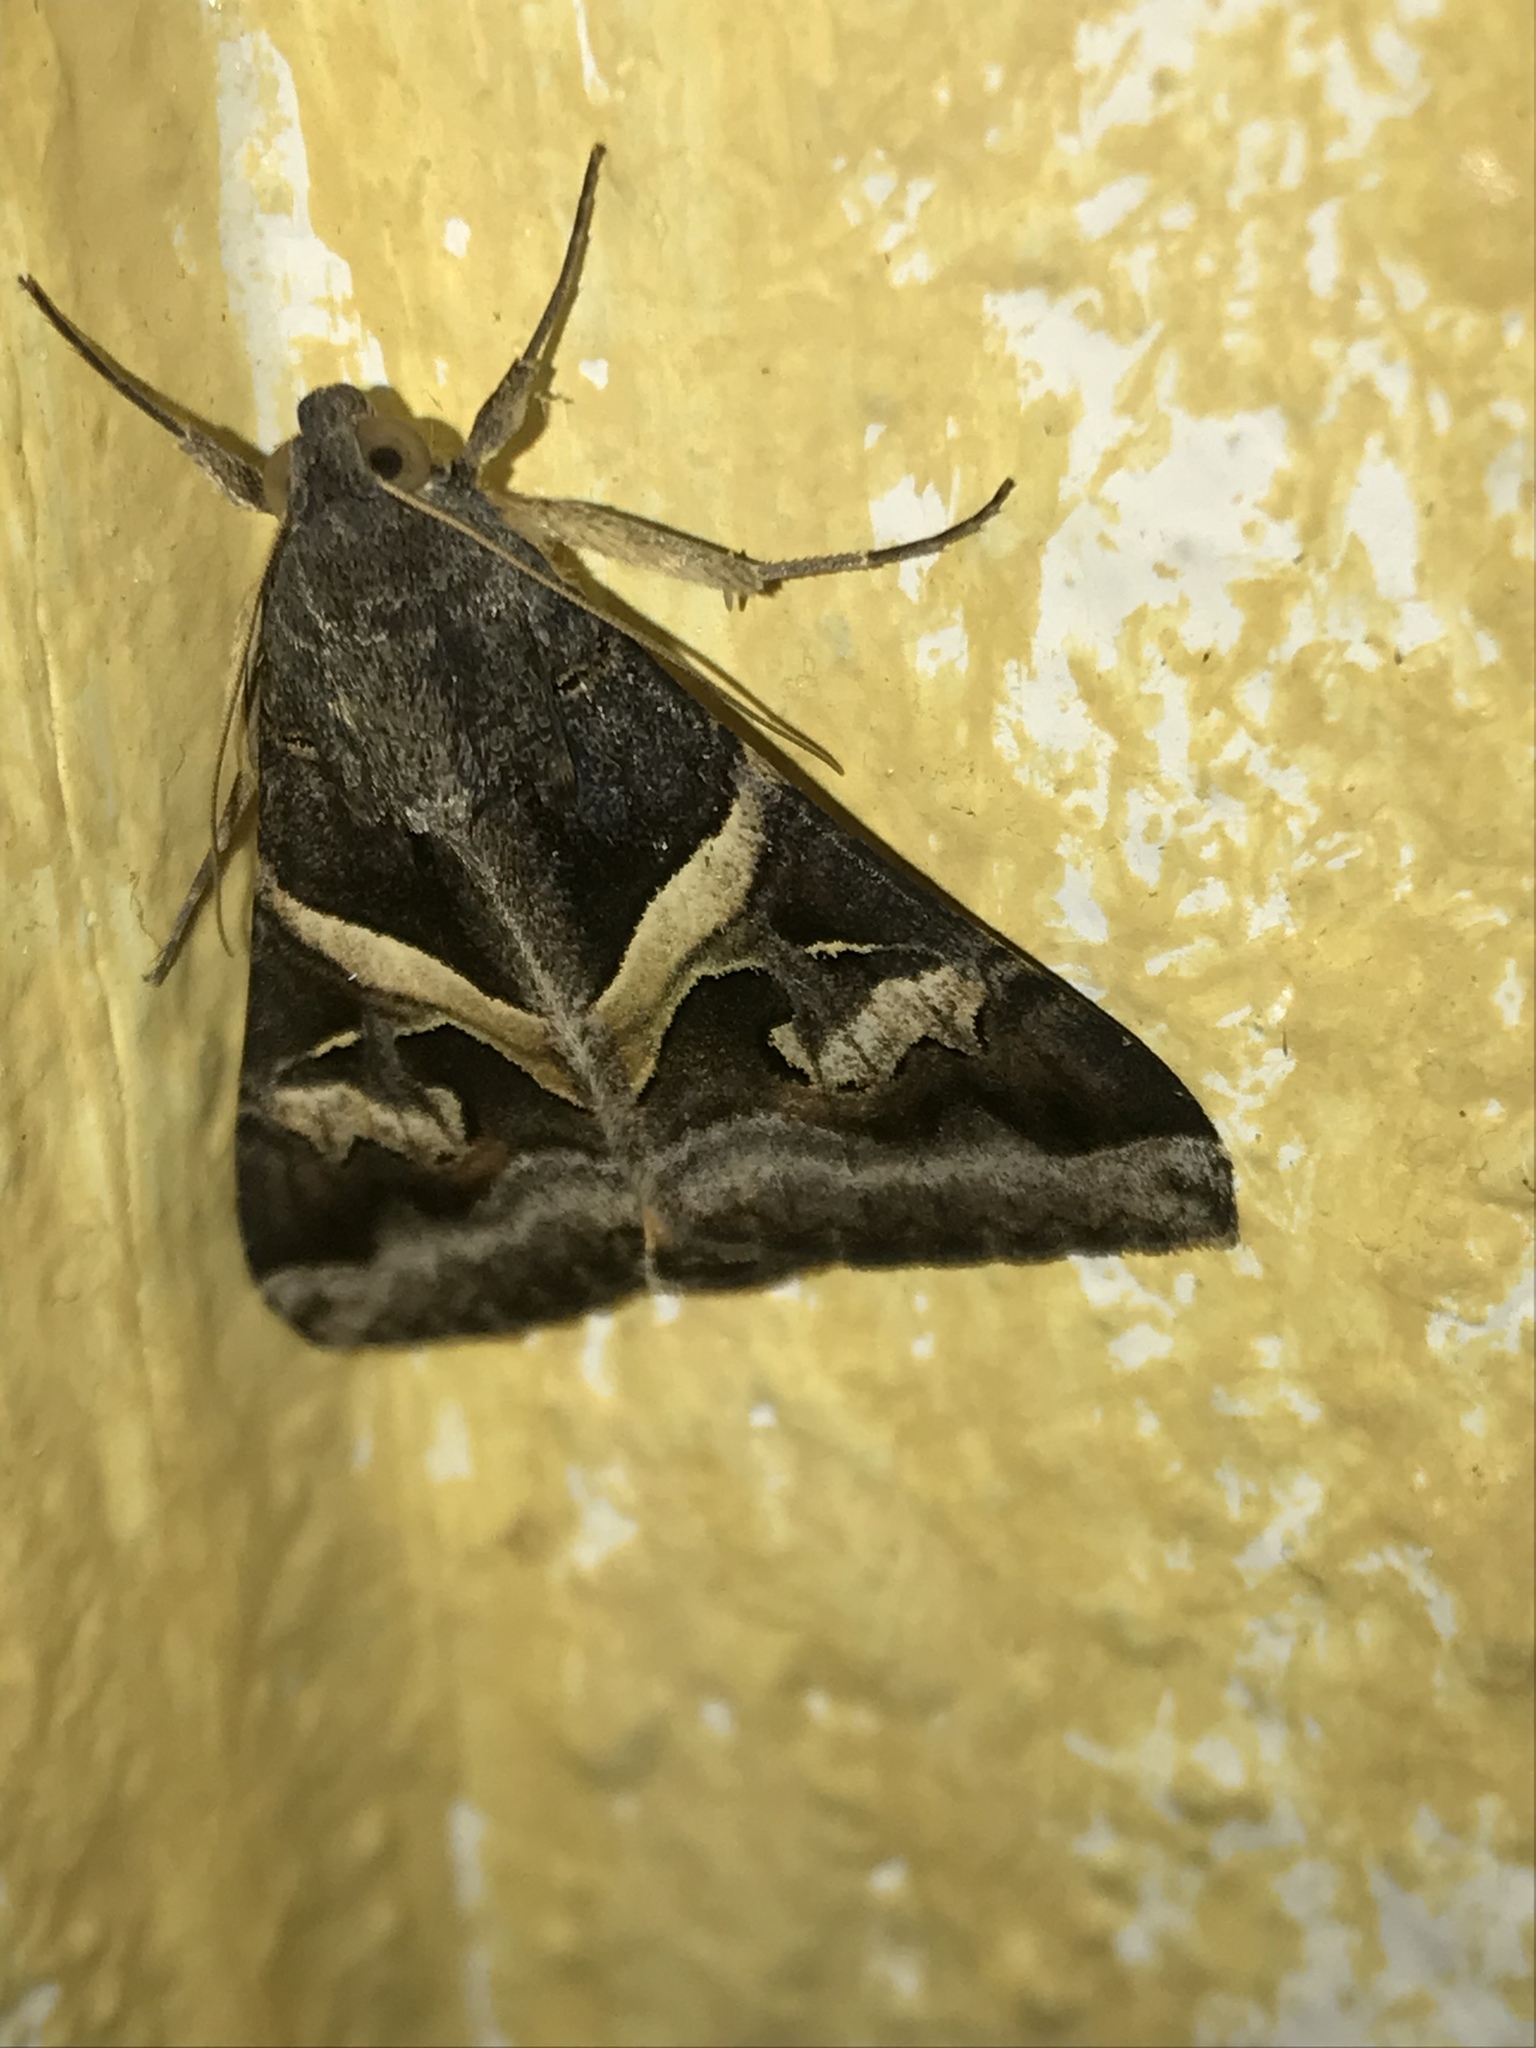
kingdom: Animalia
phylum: Arthropoda
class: Insecta
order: Lepidoptera
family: Erebidae
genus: Melipotis
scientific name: Melipotis indomita
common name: Moth
